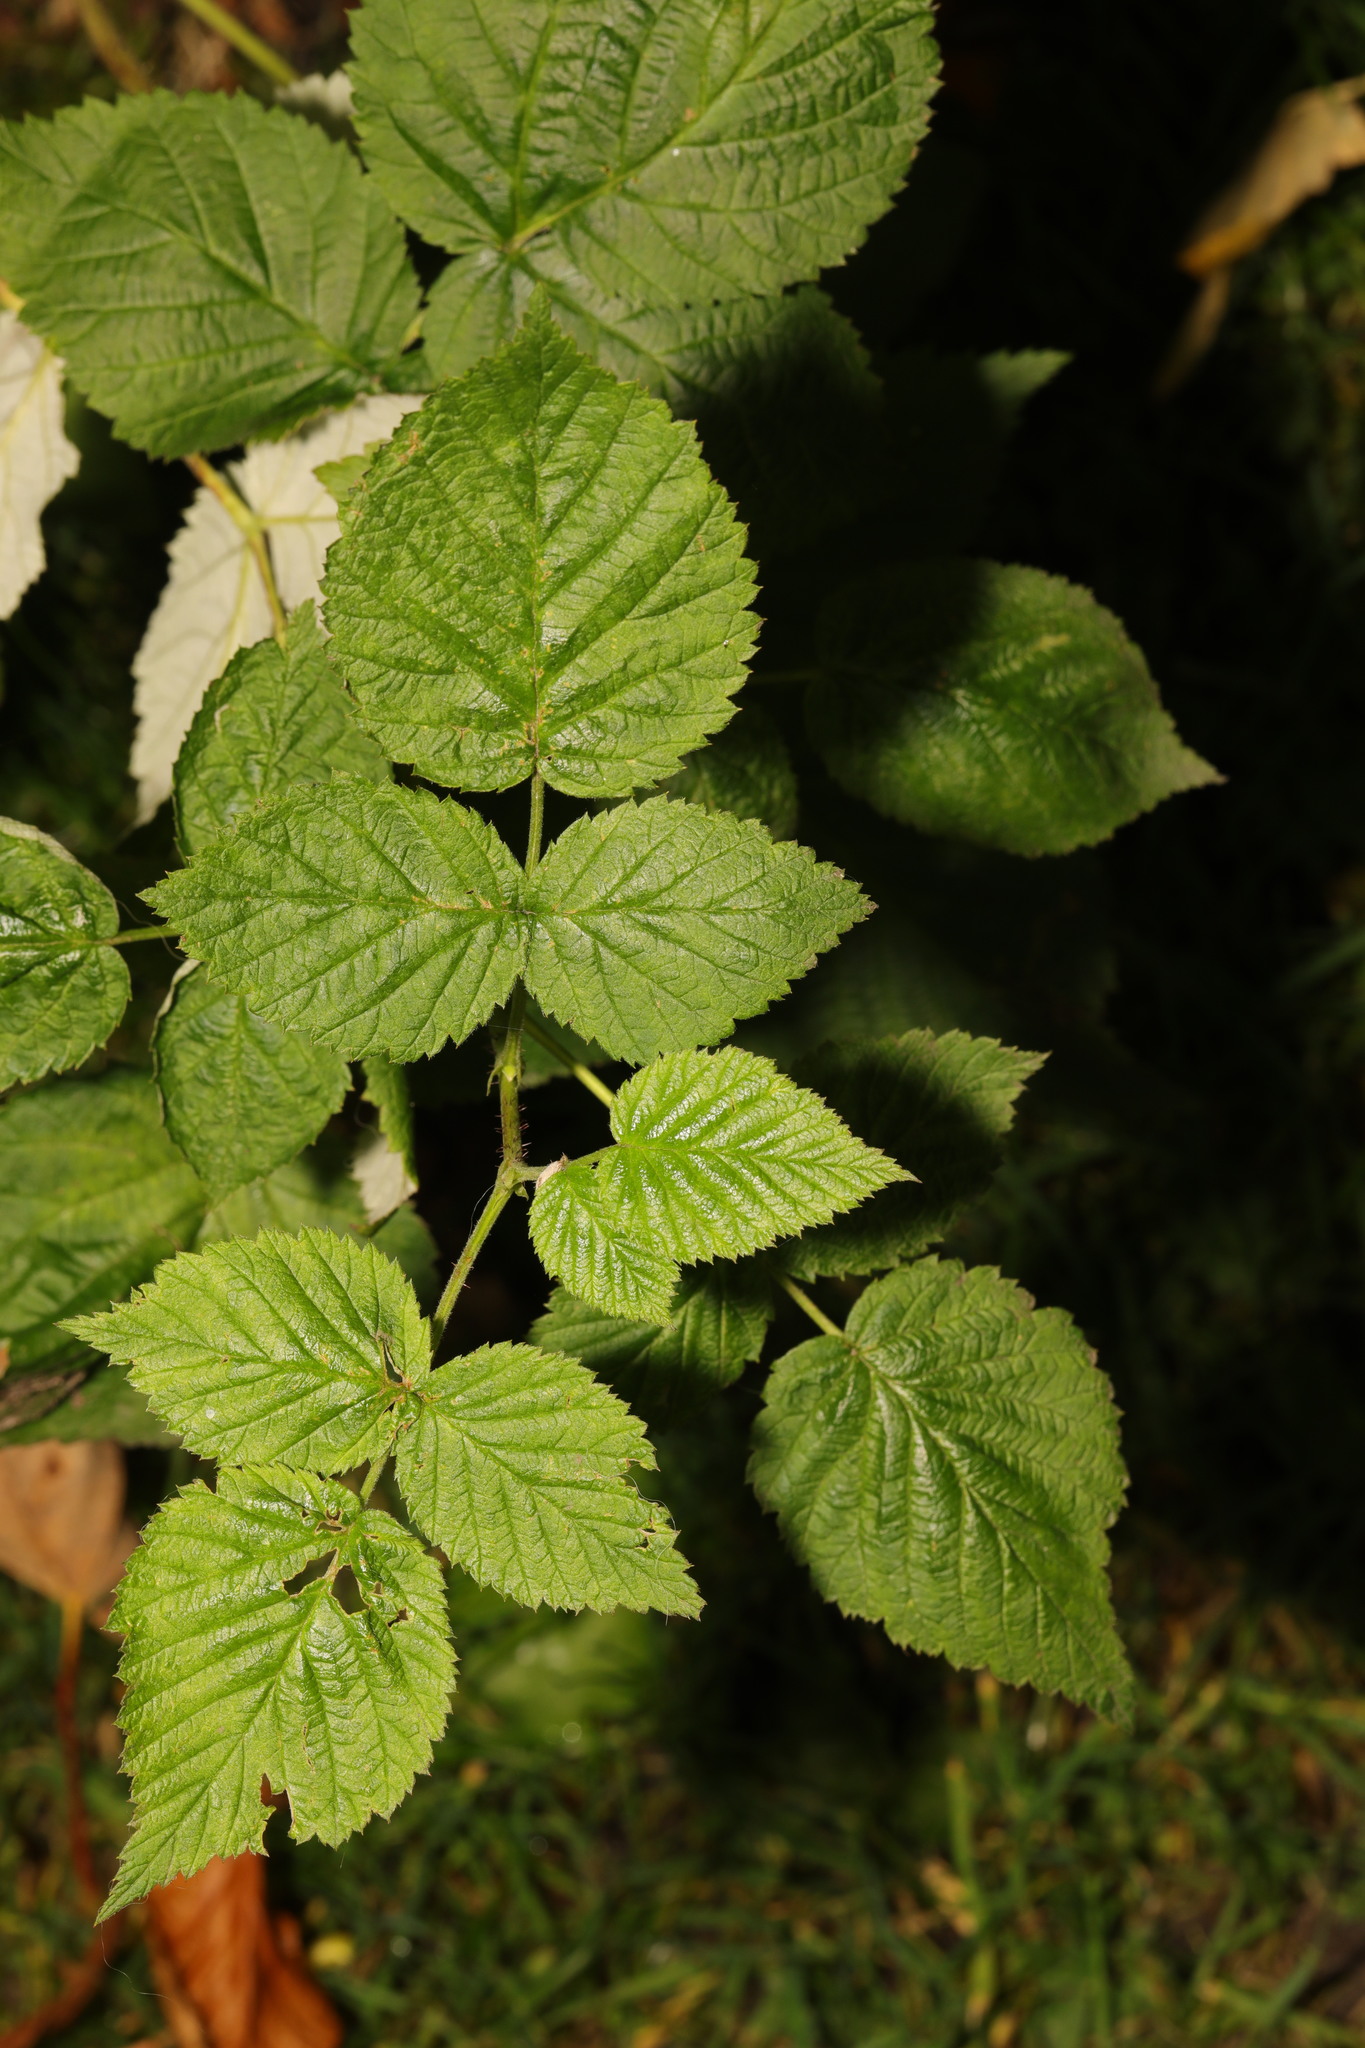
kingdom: Plantae
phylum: Tracheophyta
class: Magnoliopsida
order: Rosales
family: Rosaceae
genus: Rubus
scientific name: Rubus idaeus
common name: Raspberry
